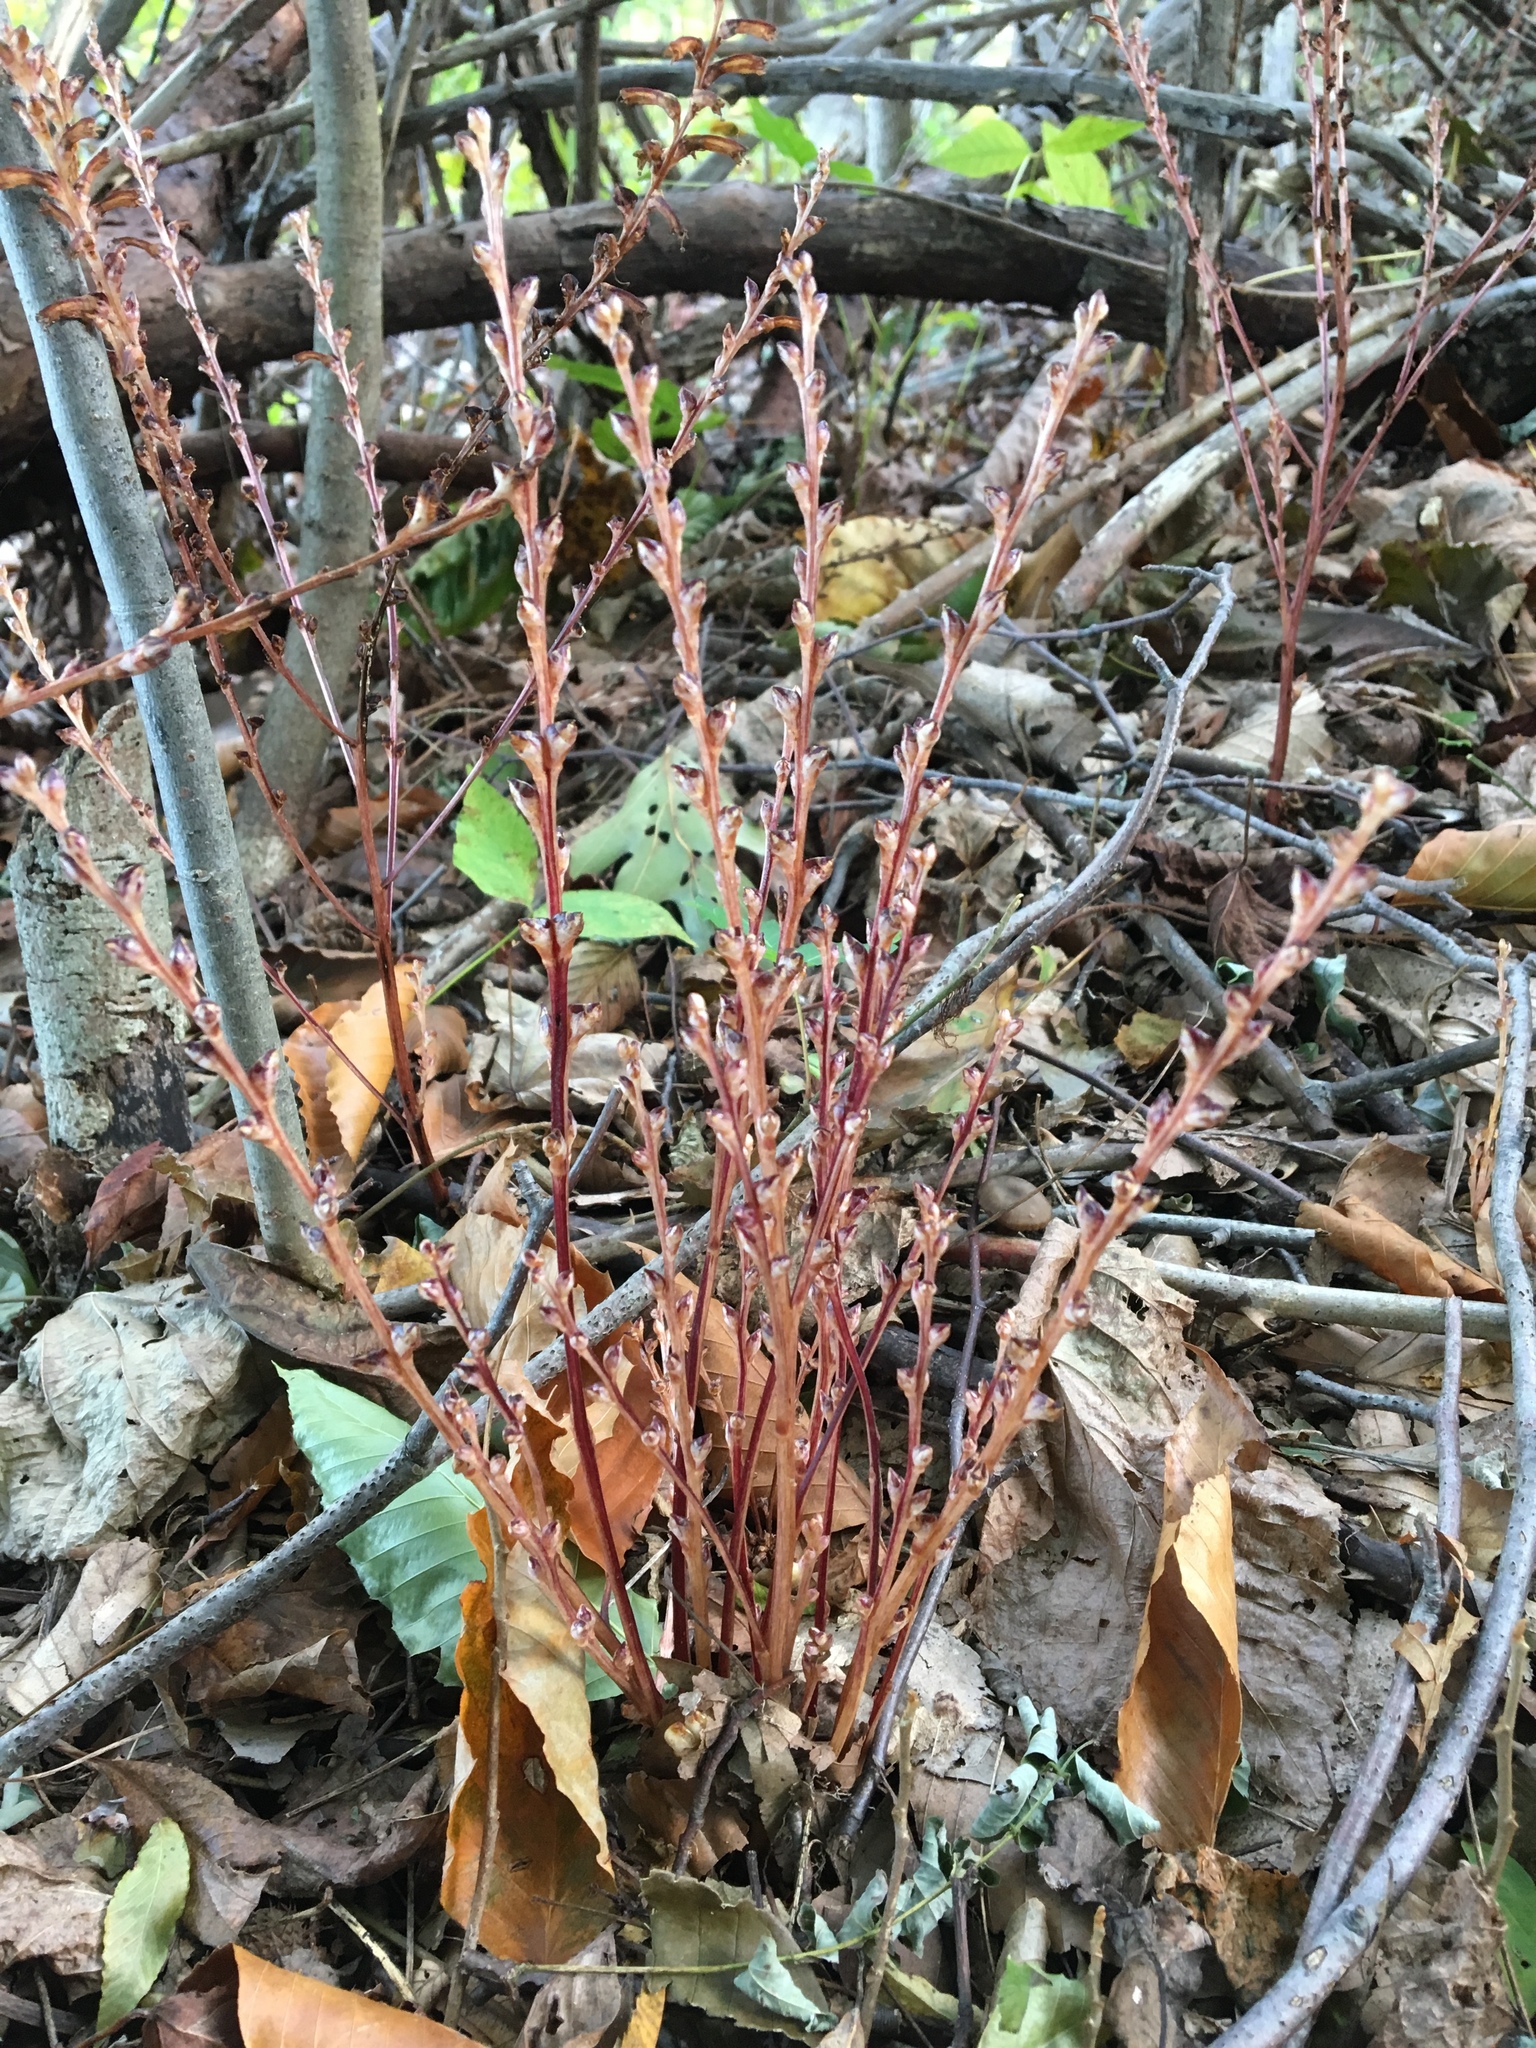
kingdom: Plantae
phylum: Tracheophyta
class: Magnoliopsida
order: Lamiales
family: Orobanchaceae
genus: Epifagus
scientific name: Epifagus virginiana
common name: Beechdrops
